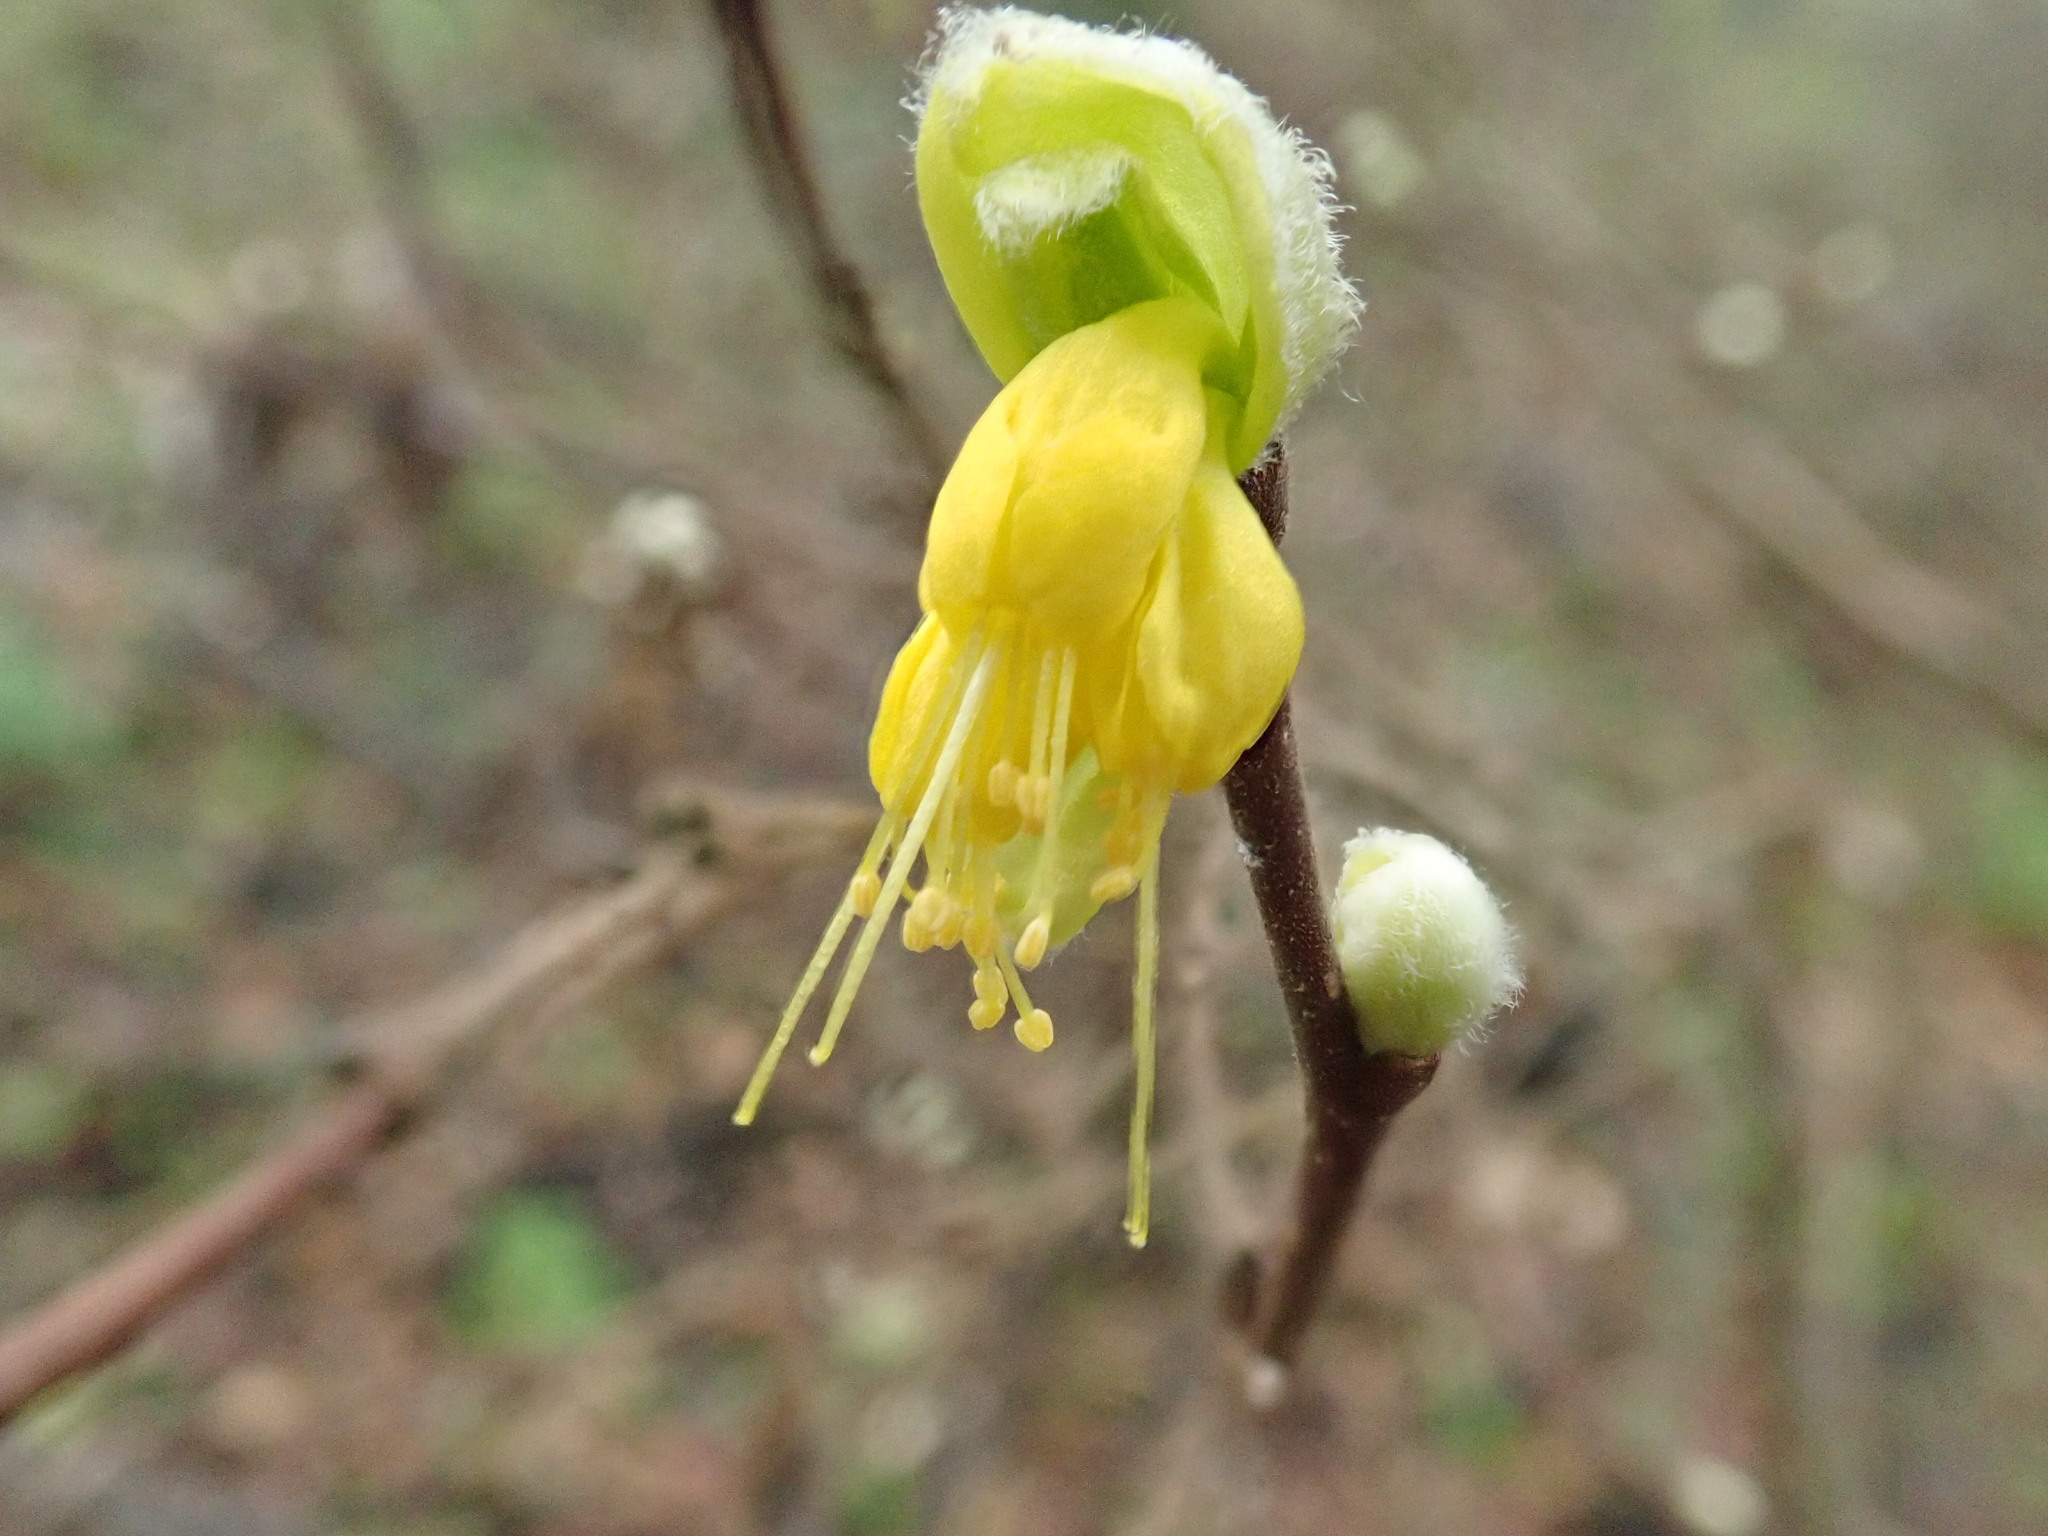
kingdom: Plantae
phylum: Tracheophyta
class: Magnoliopsida
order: Malvales
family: Thymelaeaceae
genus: Dirca
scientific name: Dirca occidentalis
